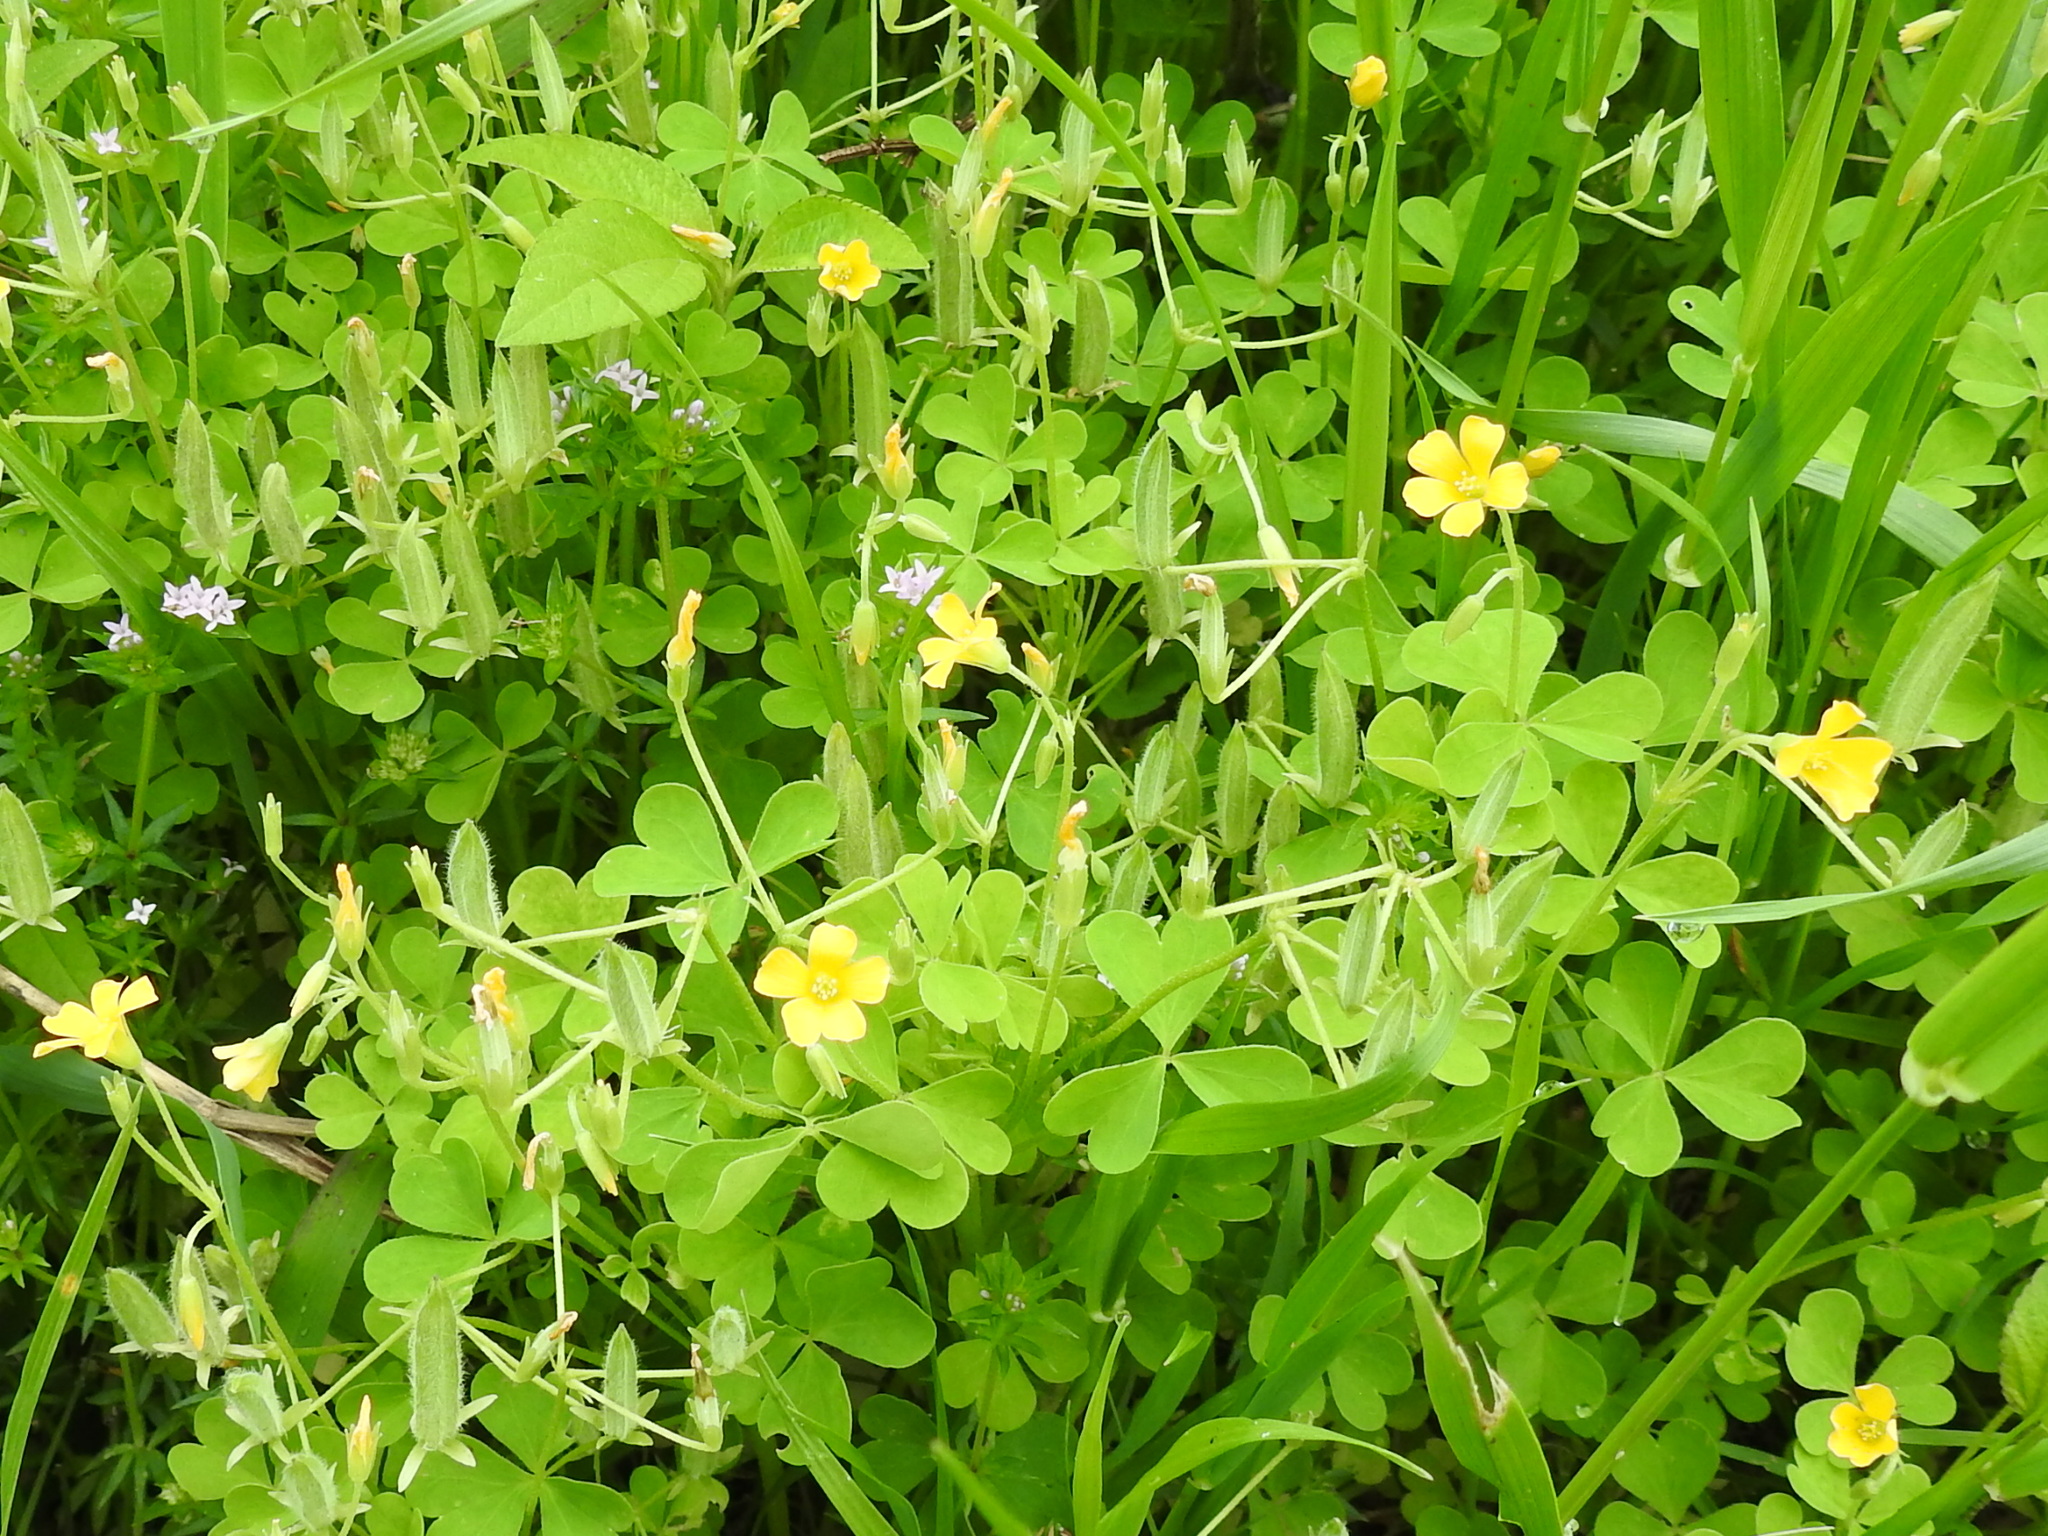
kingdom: Plantae
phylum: Tracheophyta
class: Magnoliopsida
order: Oxalidales
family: Oxalidaceae
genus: Oxalis
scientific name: Oxalis dillenii
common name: Sussex yellow-sorrel
